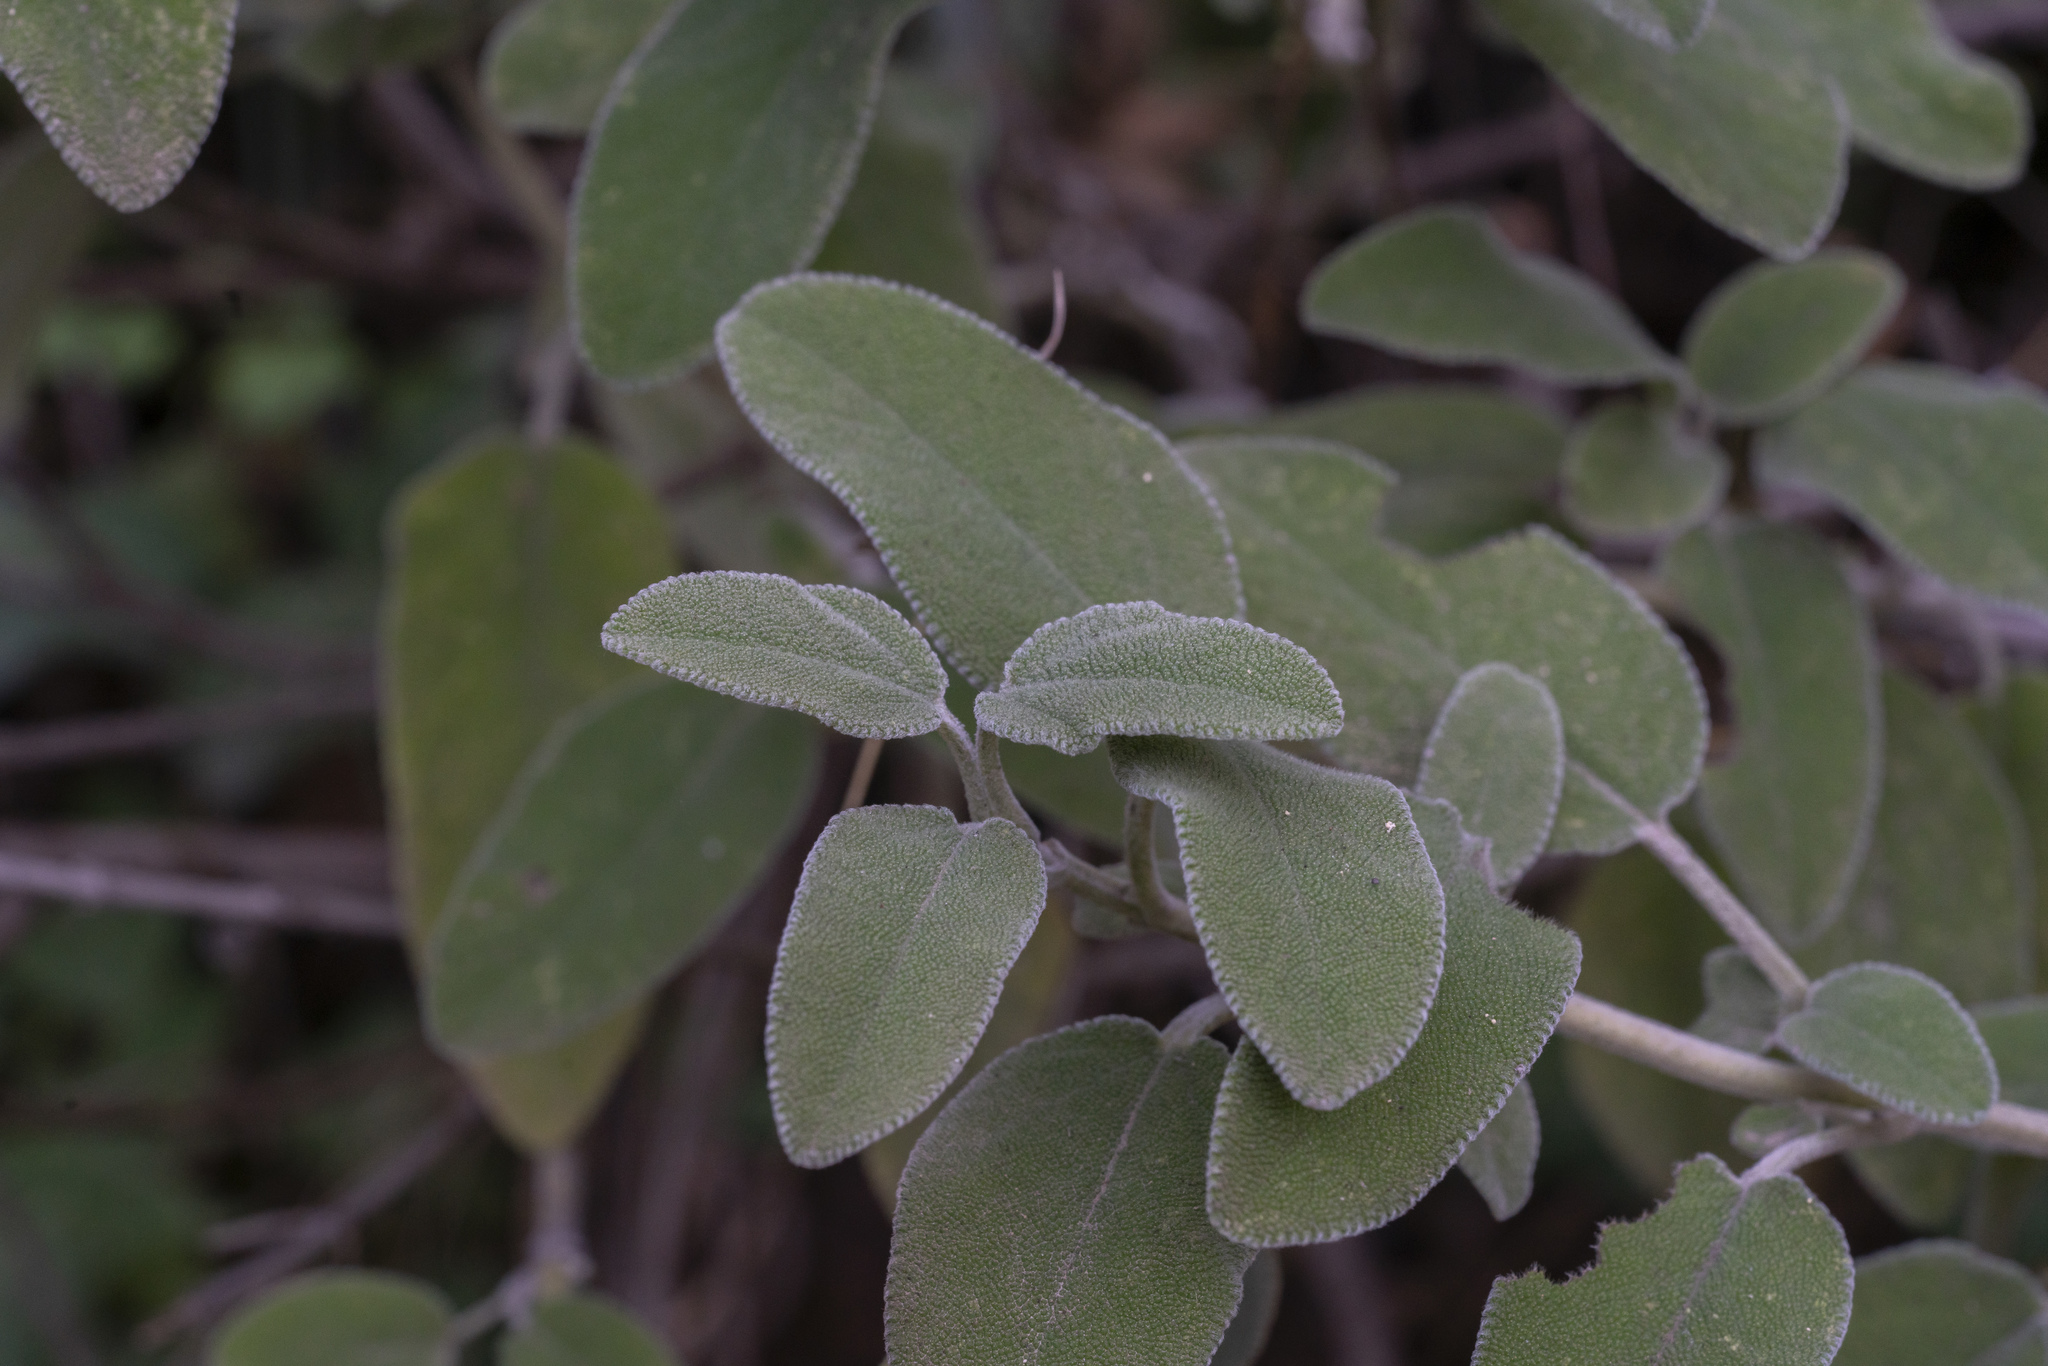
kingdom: Plantae
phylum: Tracheophyta
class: Magnoliopsida
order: Lamiales
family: Lamiaceae
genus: Salvia
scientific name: Salvia fruticosa
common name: Greek sage
